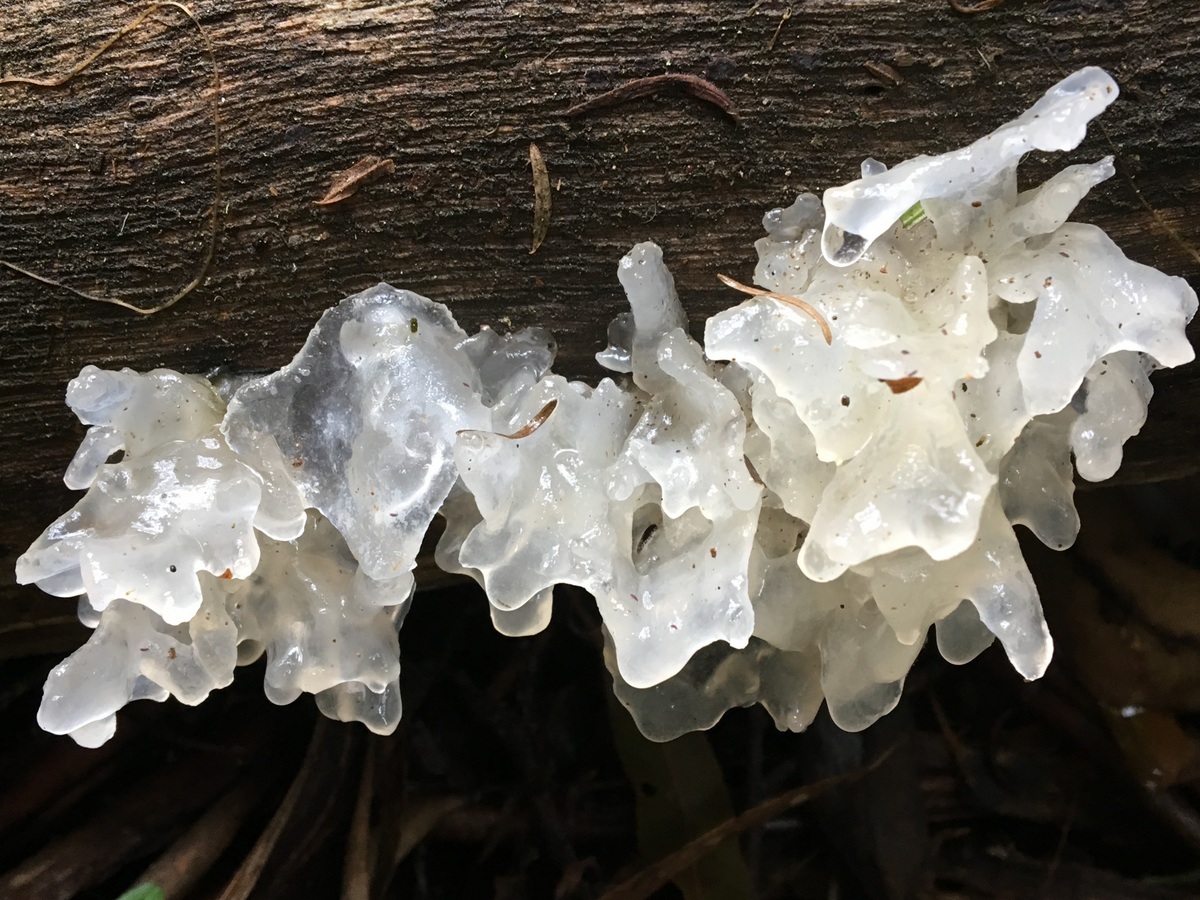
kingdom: Fungi
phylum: Basidiomycota
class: Tremellomycetes
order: Tremellales
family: Tremellaceae
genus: Tremella
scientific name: Tremella fuciformis
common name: Snow fungus
